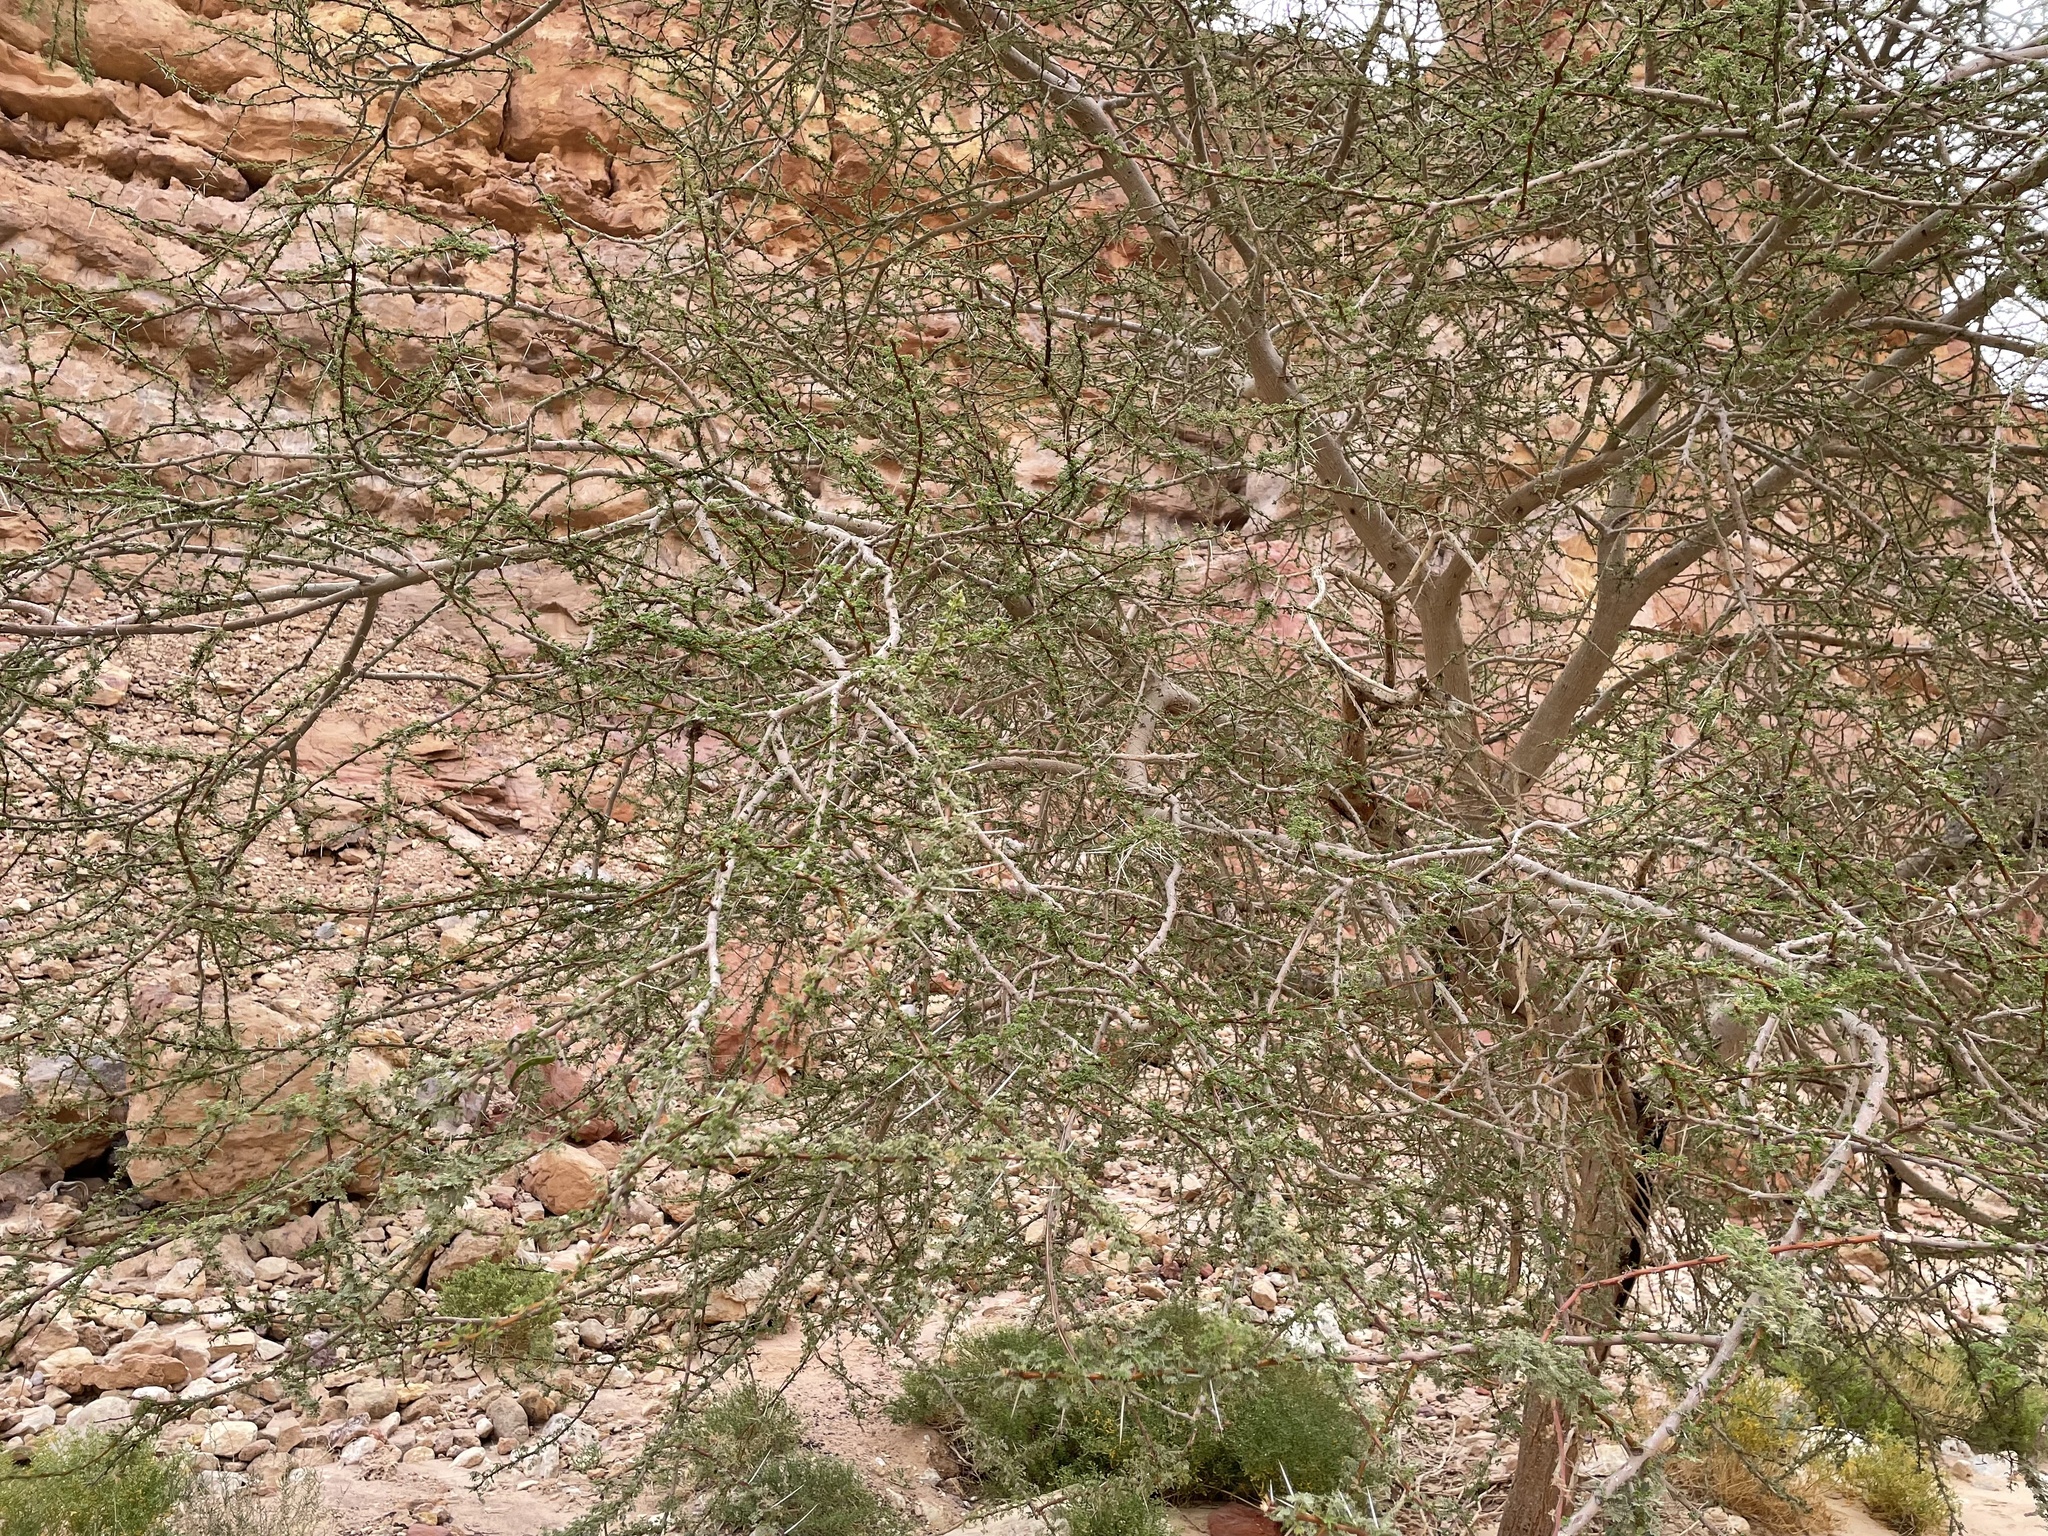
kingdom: Plantae
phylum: Tracheophyta
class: Magnoliopsida
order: Fabales
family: Fabaceae
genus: Vachellia
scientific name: Vachellia tortilis
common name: Umbrella thorn acacia
